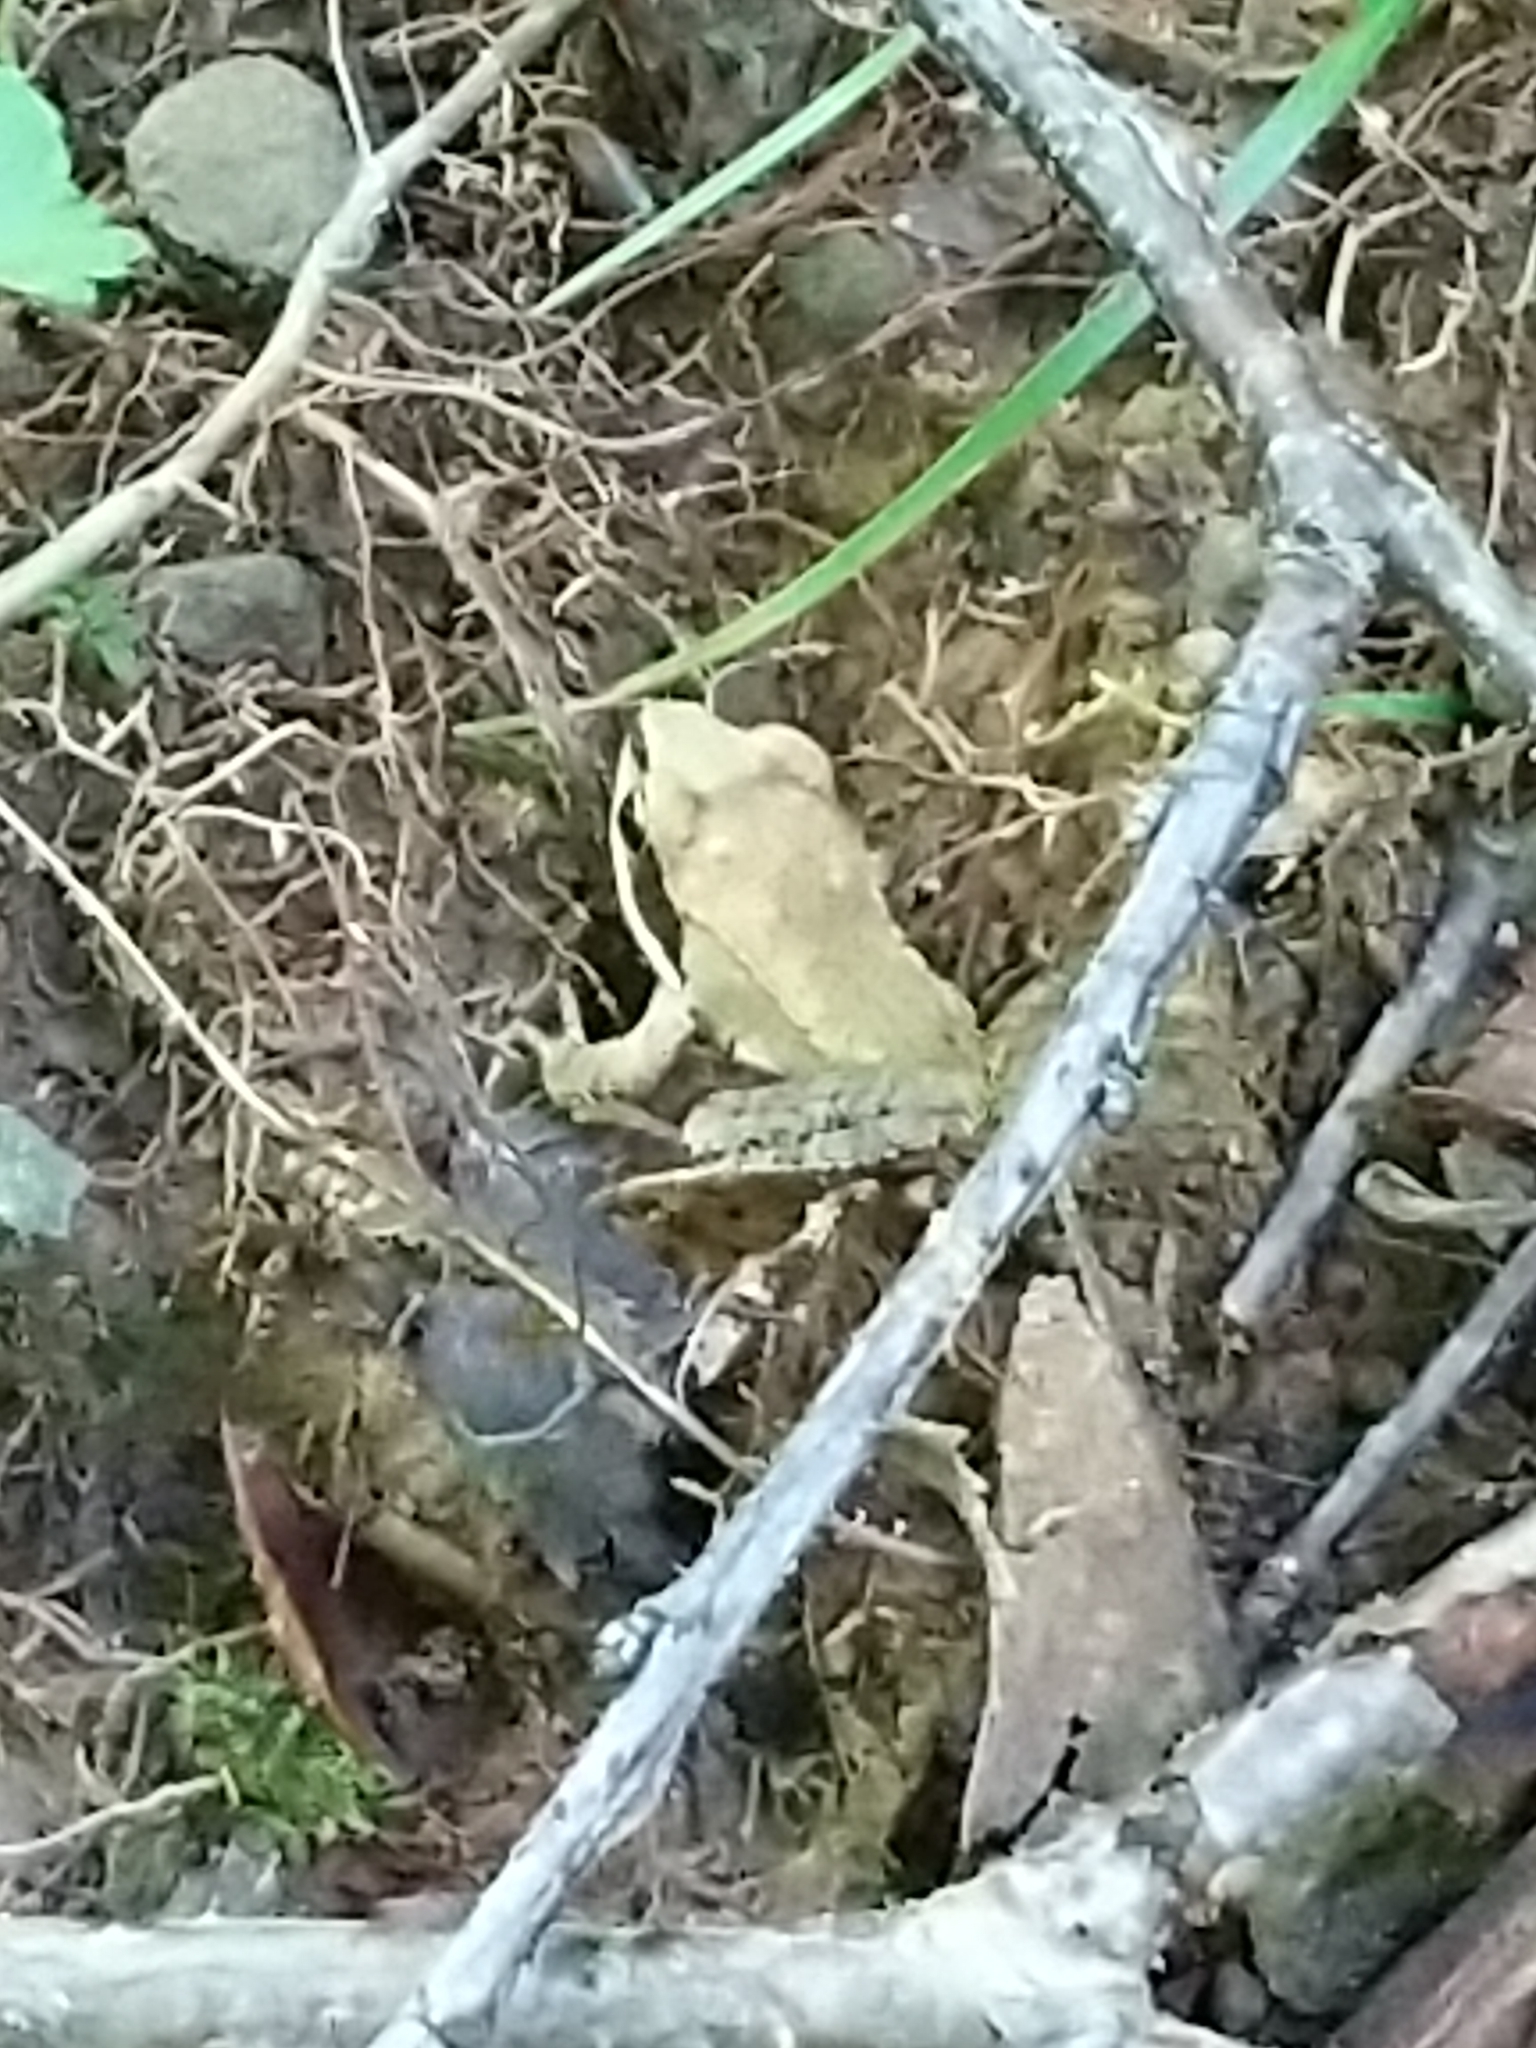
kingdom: Animalia
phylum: Chordata
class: Amphibia
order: Anura
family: Ranidae
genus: Lithobates
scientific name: Lithobates sylvaticus
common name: Wood frog
